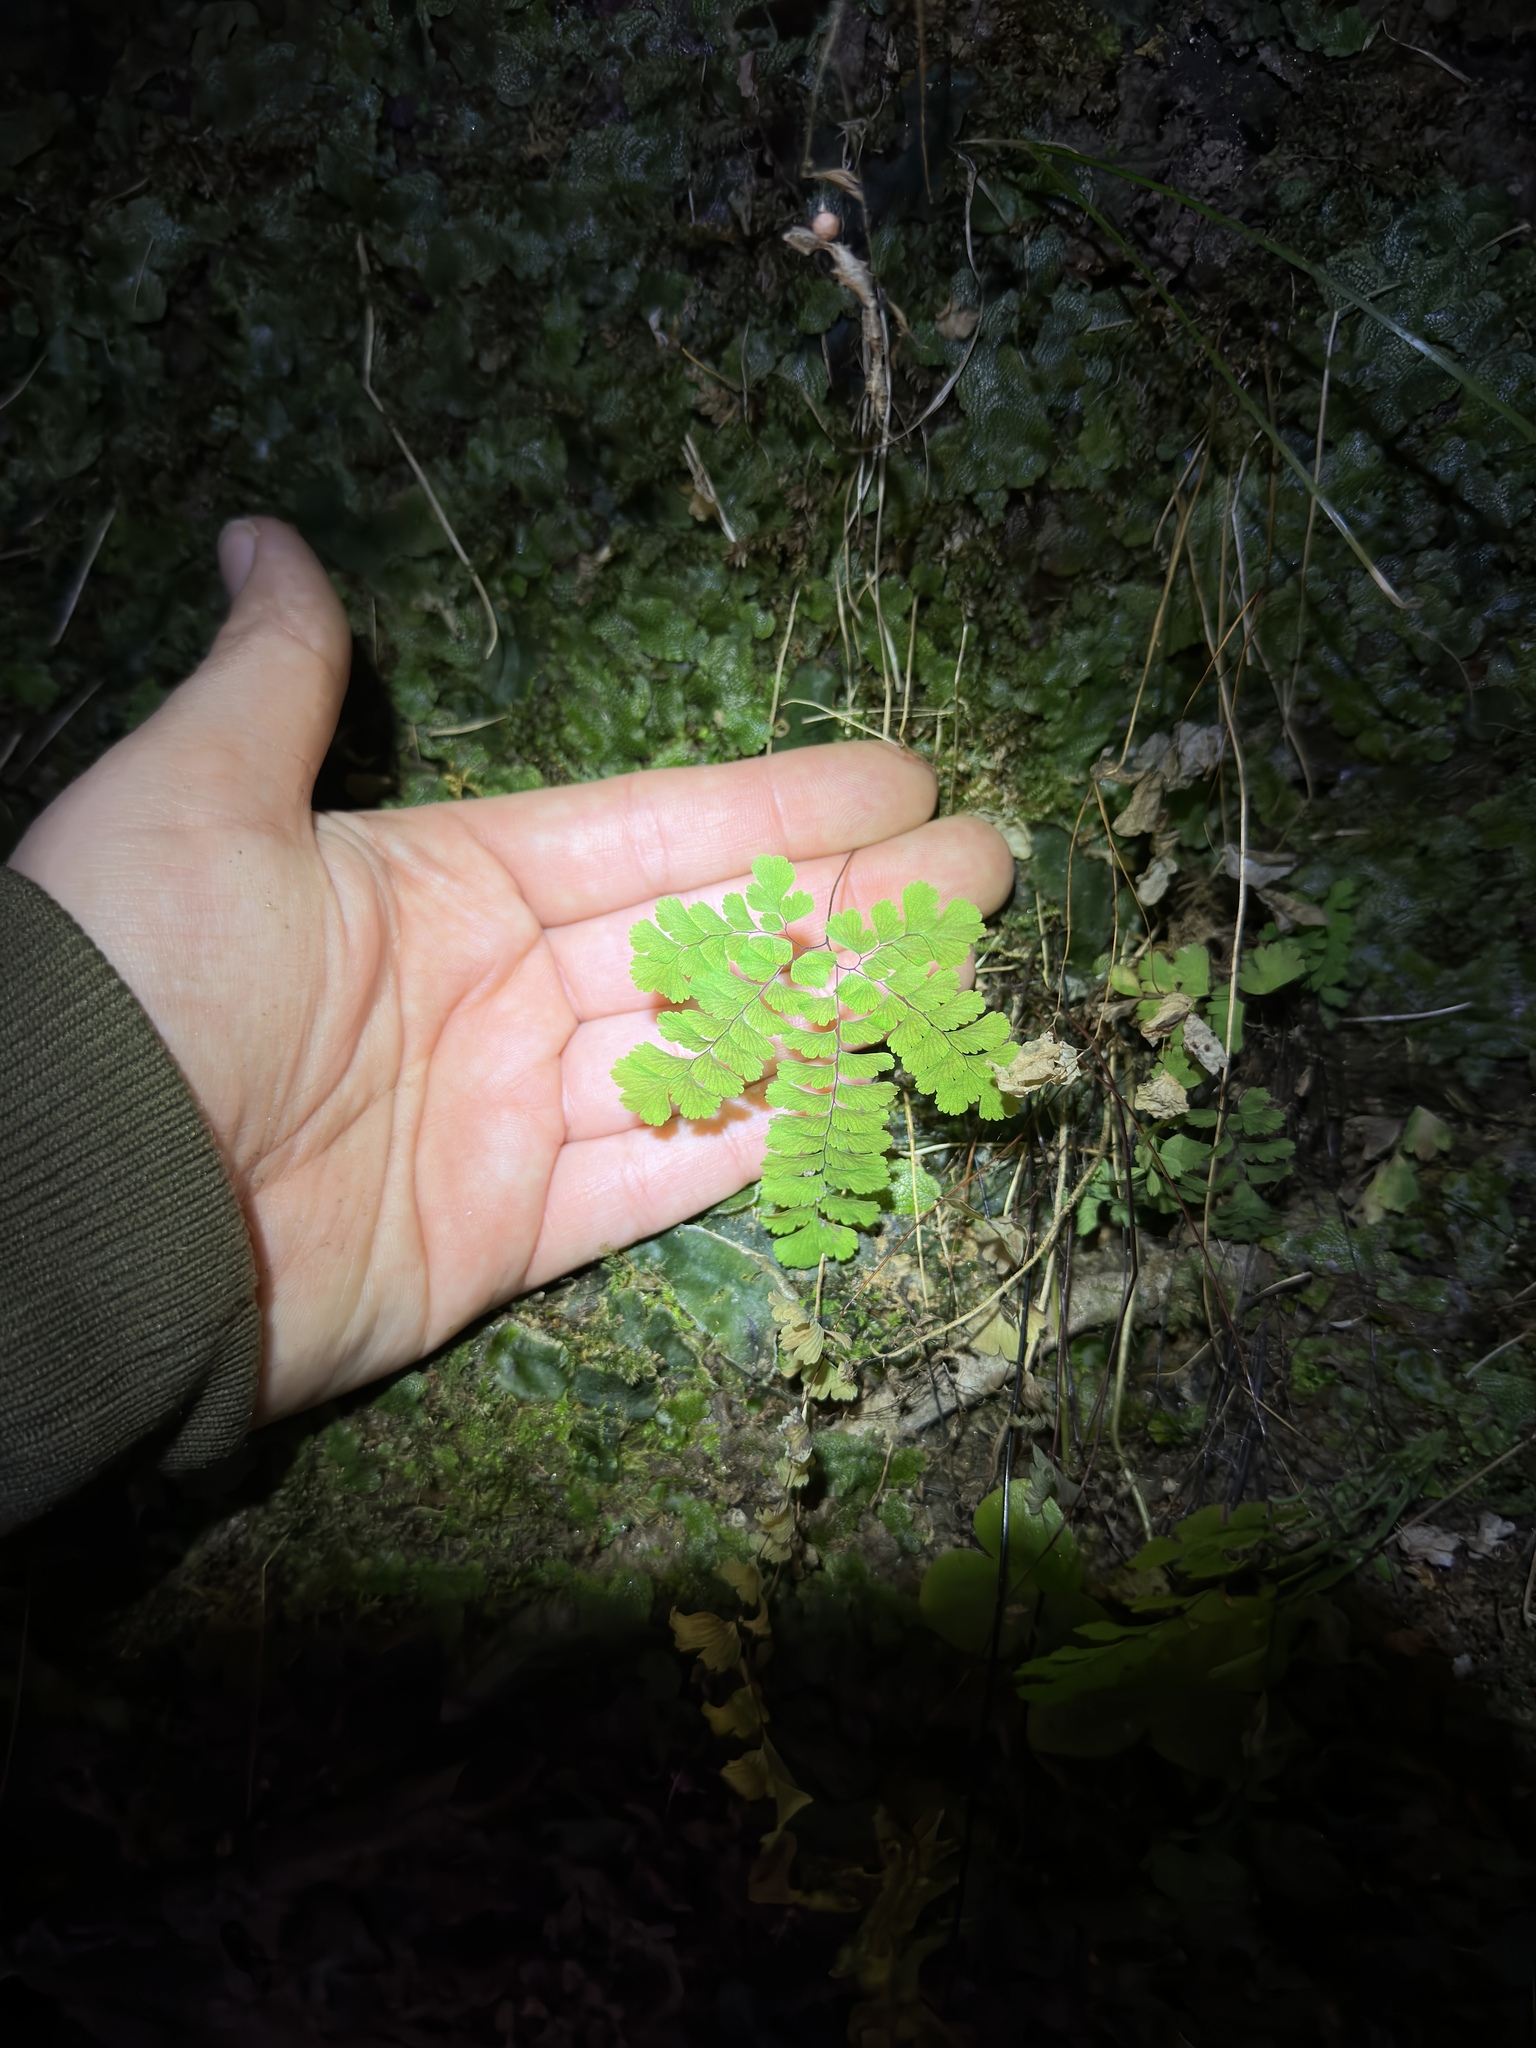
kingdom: Plantae
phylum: Tracheophyta
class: Polypodiopsida
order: Polypodiales
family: Pteridaceae
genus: Adiantum
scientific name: Adiantum pedatum
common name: Five-finger fern
